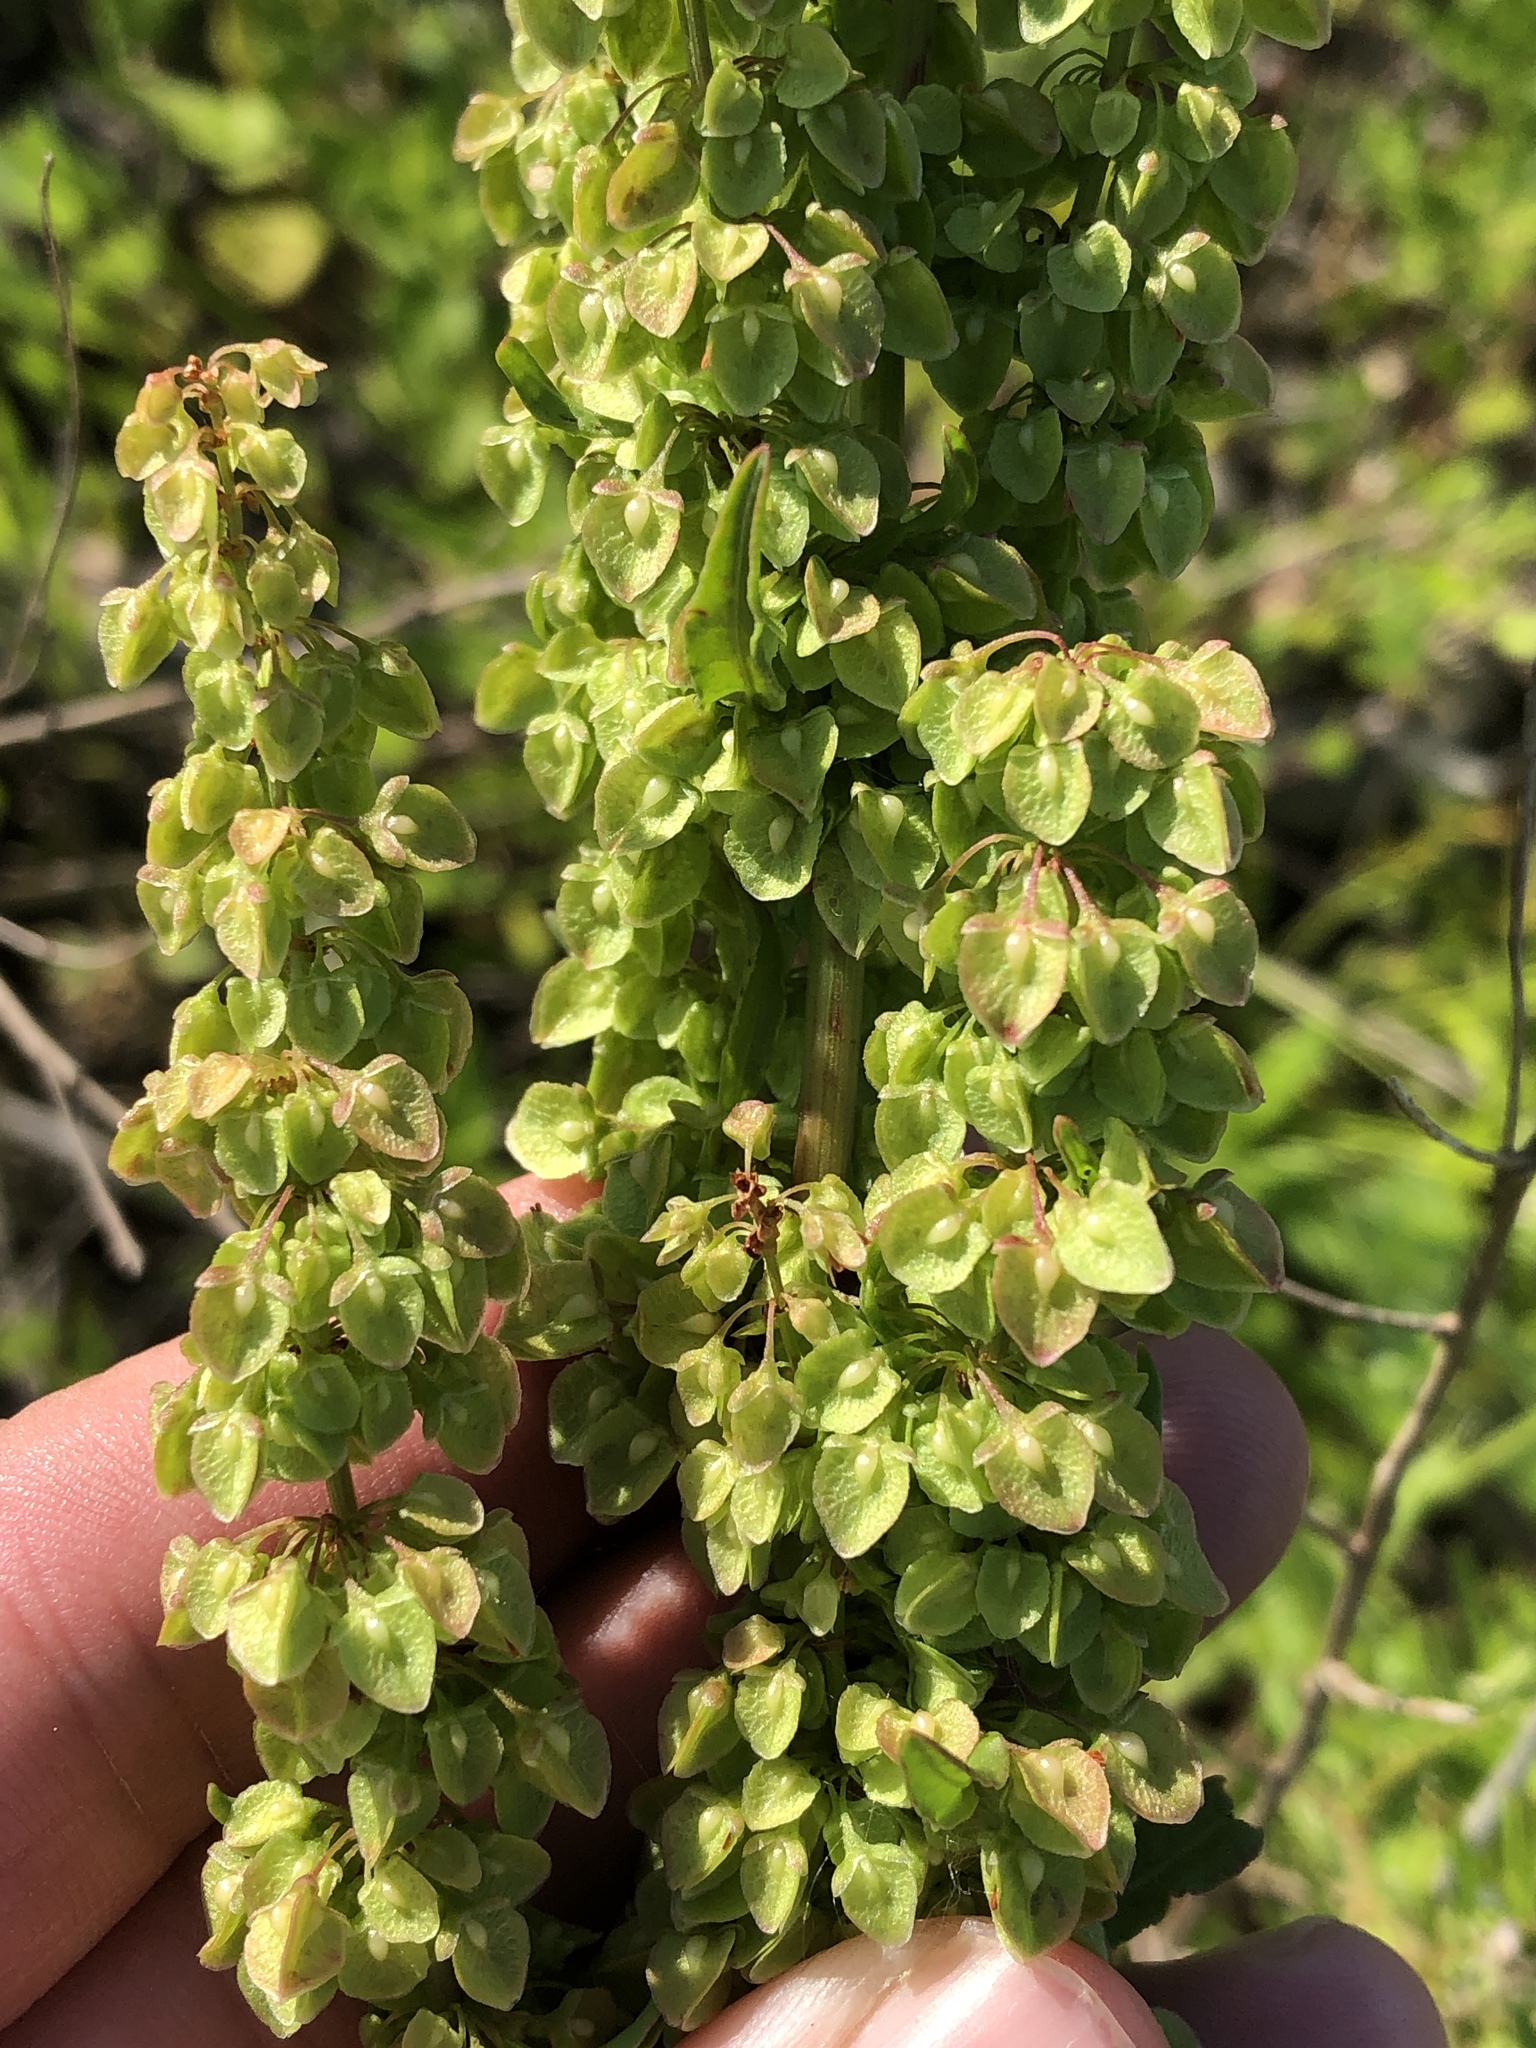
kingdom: Plantae
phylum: Tracheophyta
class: Magnoliopsida
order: Caryophyllales
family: Polygonaceae
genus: Rumex
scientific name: Rumex crispus
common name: Curled dock
